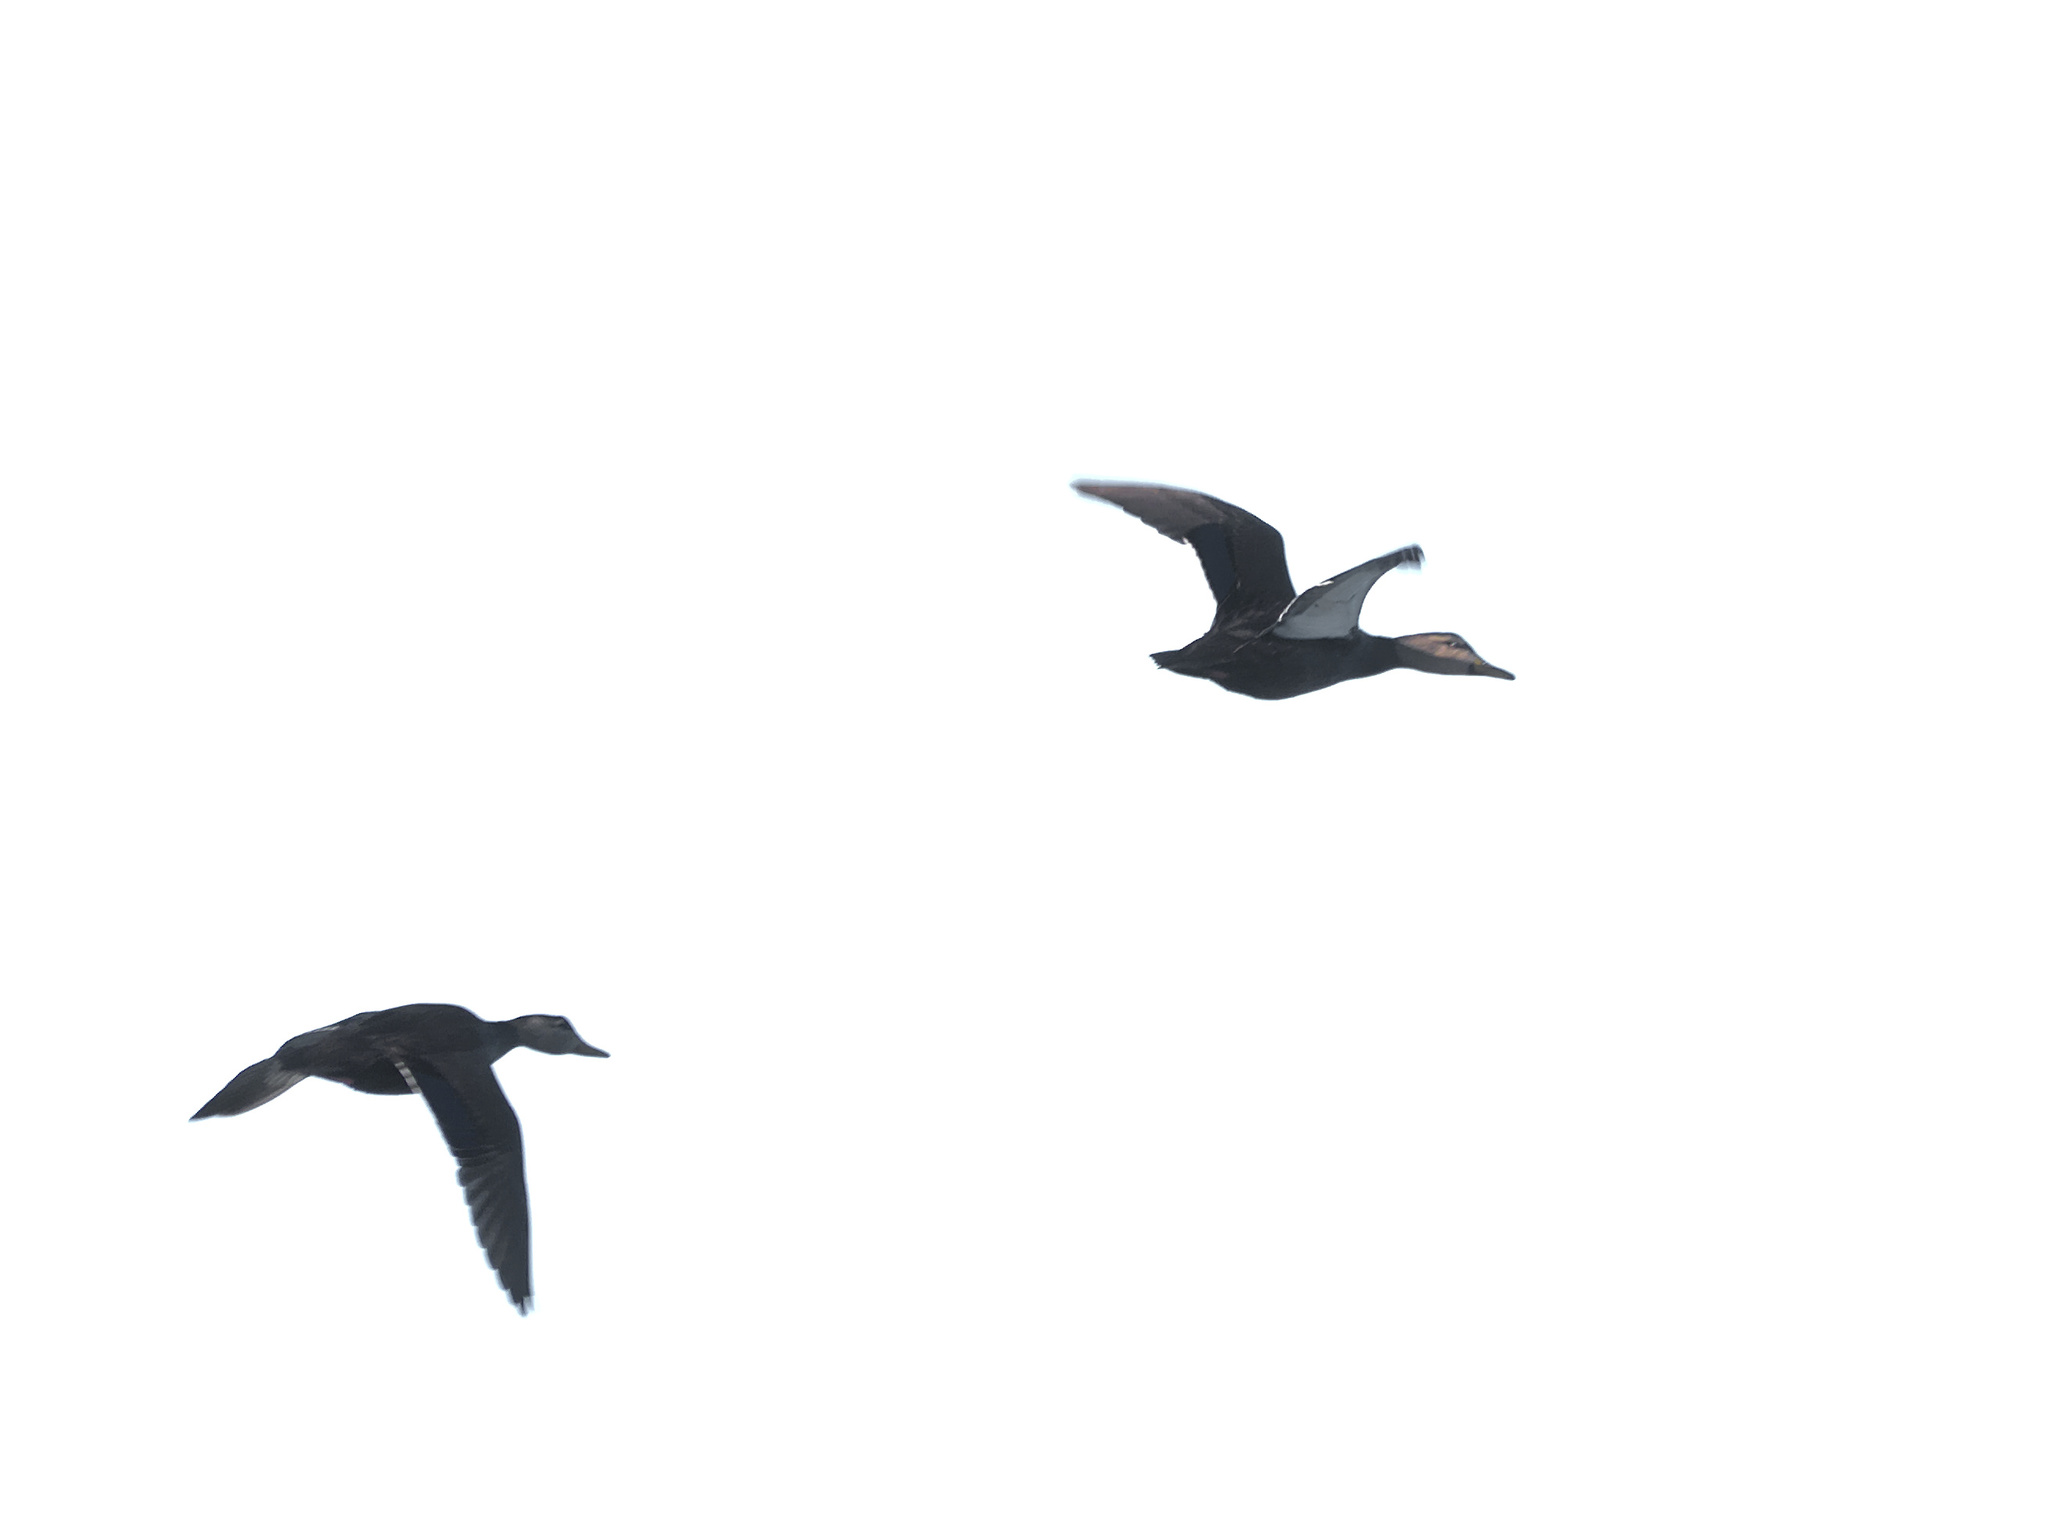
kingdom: Animalia
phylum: Chordata
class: Aves
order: Anseriformes
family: Anatidae
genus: Anas
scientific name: Anas rubripes
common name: American black duck
